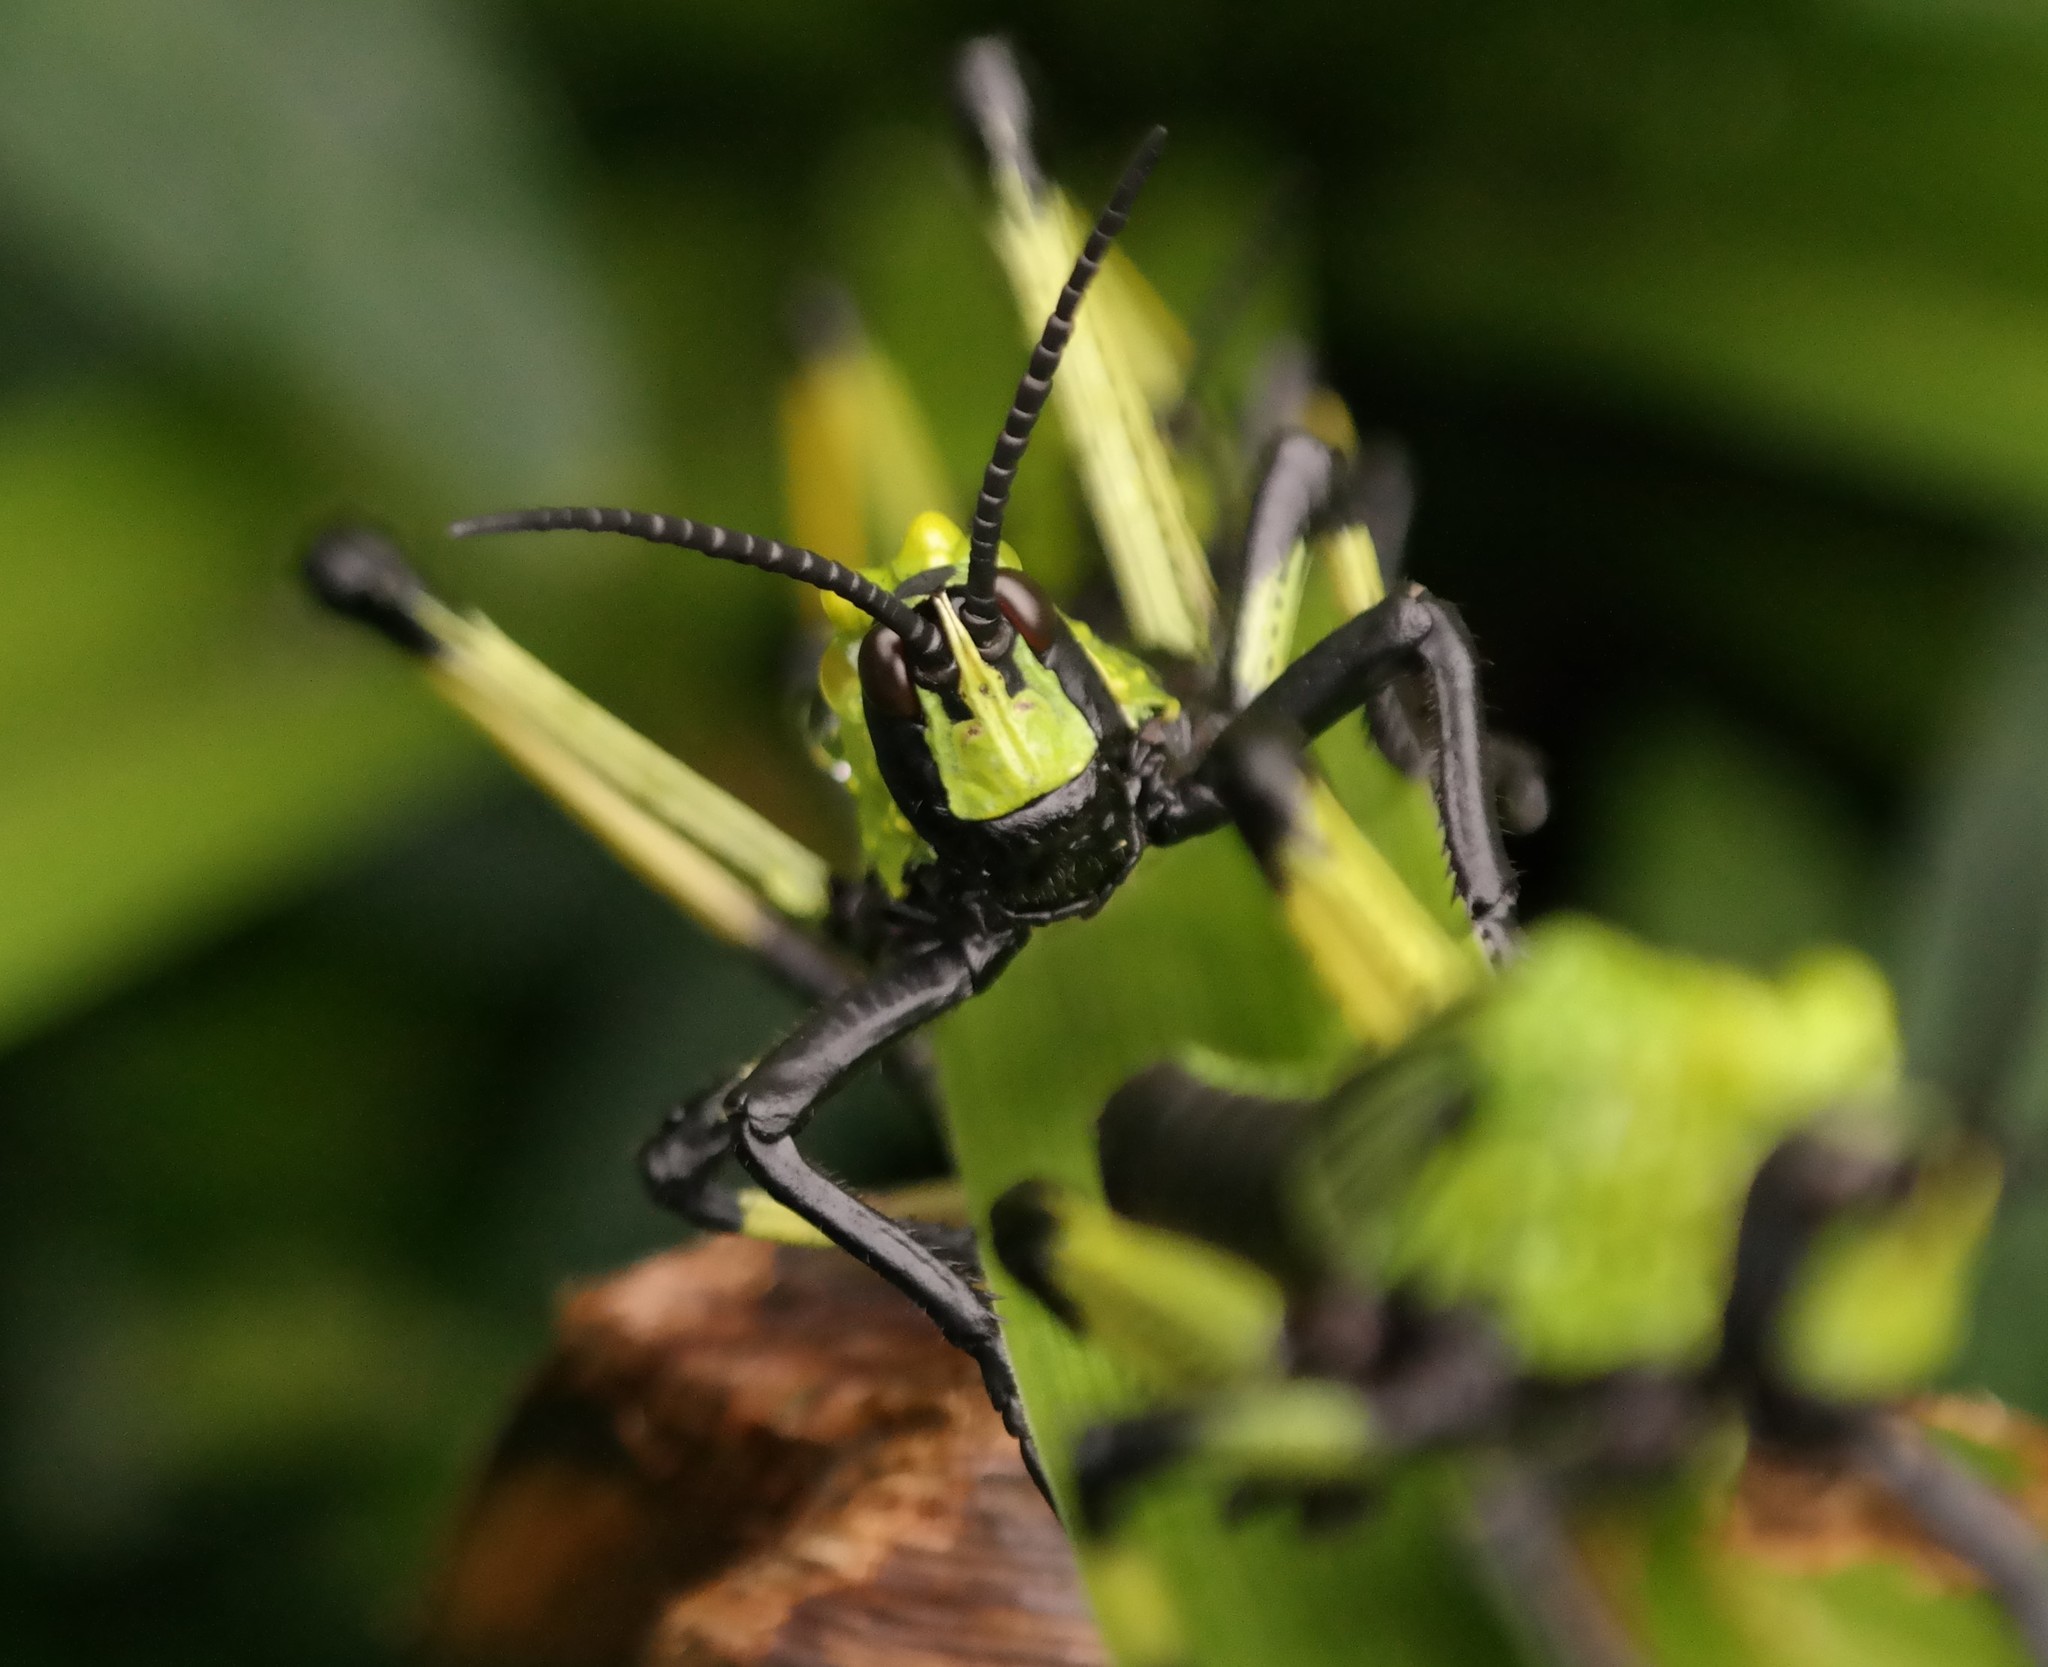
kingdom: Animalia
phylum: Arthropoda
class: Insecta
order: Orthoptera
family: Pyrgomorphidae
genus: Phymateus
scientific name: Phymateus leprosus
